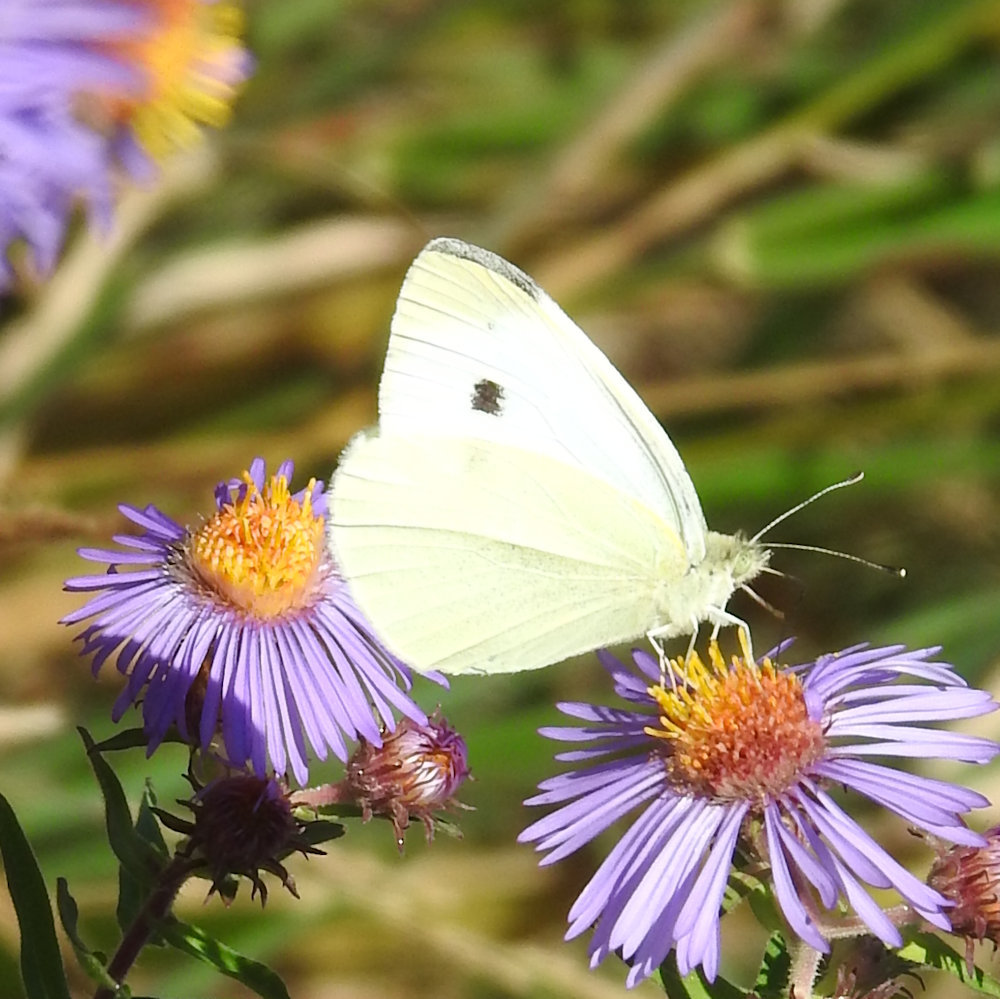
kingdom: Animalia
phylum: Arthropoda
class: Insecta
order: Lepidoptera
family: Pieridae
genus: Pieris
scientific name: Pieris rapae
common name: Small white
